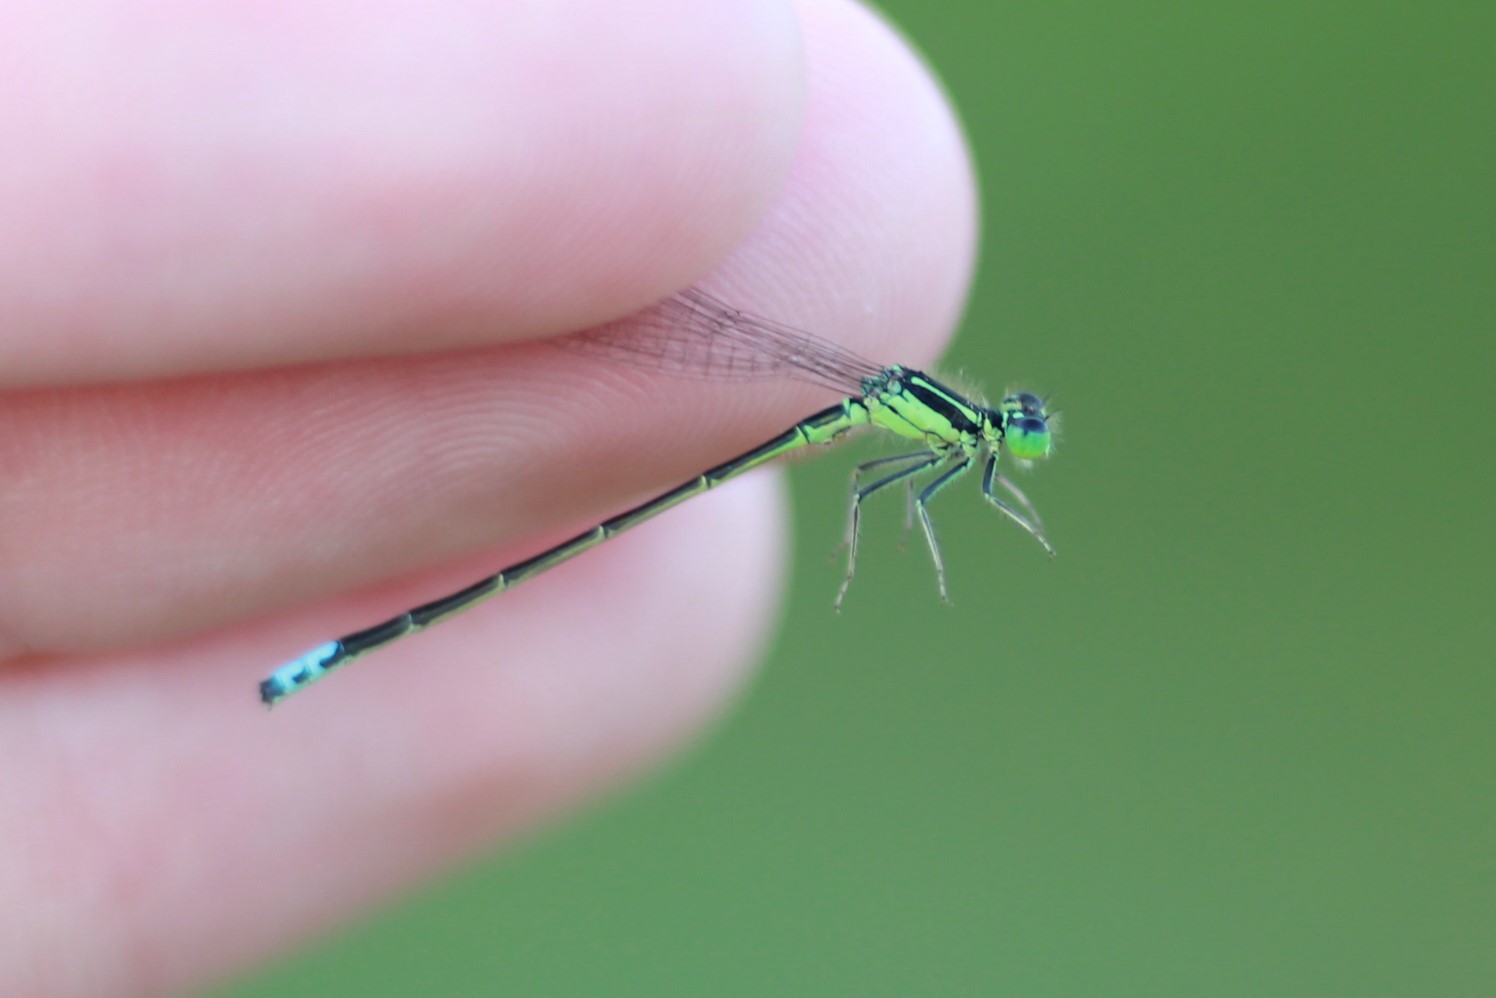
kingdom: Animalia
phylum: Arthropoda
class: Insecta
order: Odonata
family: Coenagrionidae
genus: Ischnura
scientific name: Ischnura verticalis
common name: Eastern forktail
